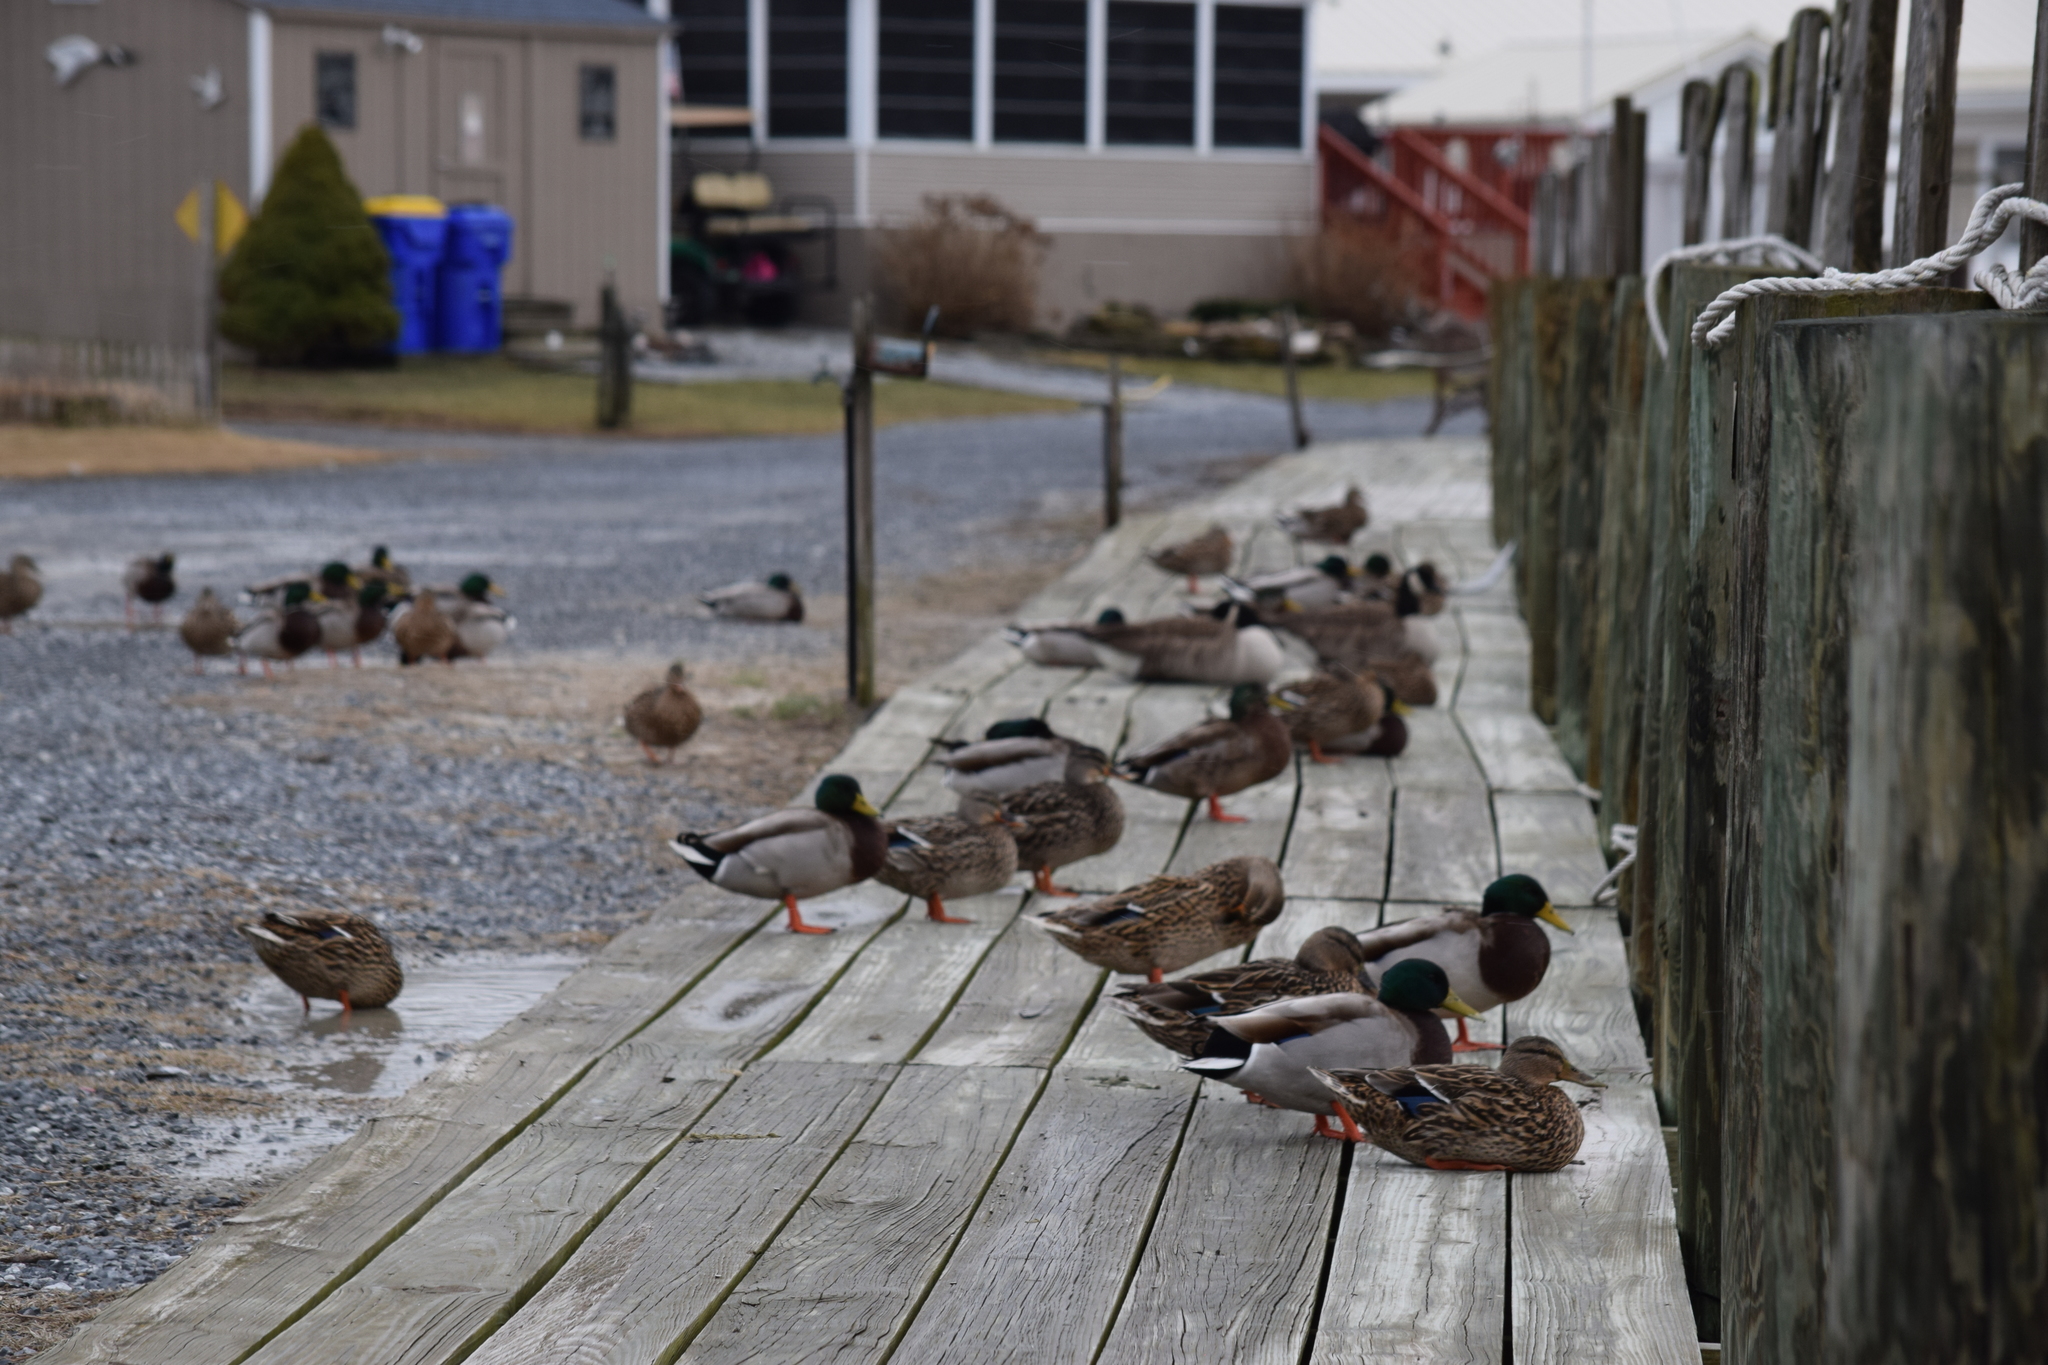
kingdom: Animalia
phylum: Chordata
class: Aves
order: Anseriformes
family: Anatidae
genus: Anas
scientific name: Anas platyrhynchos
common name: Mallard
